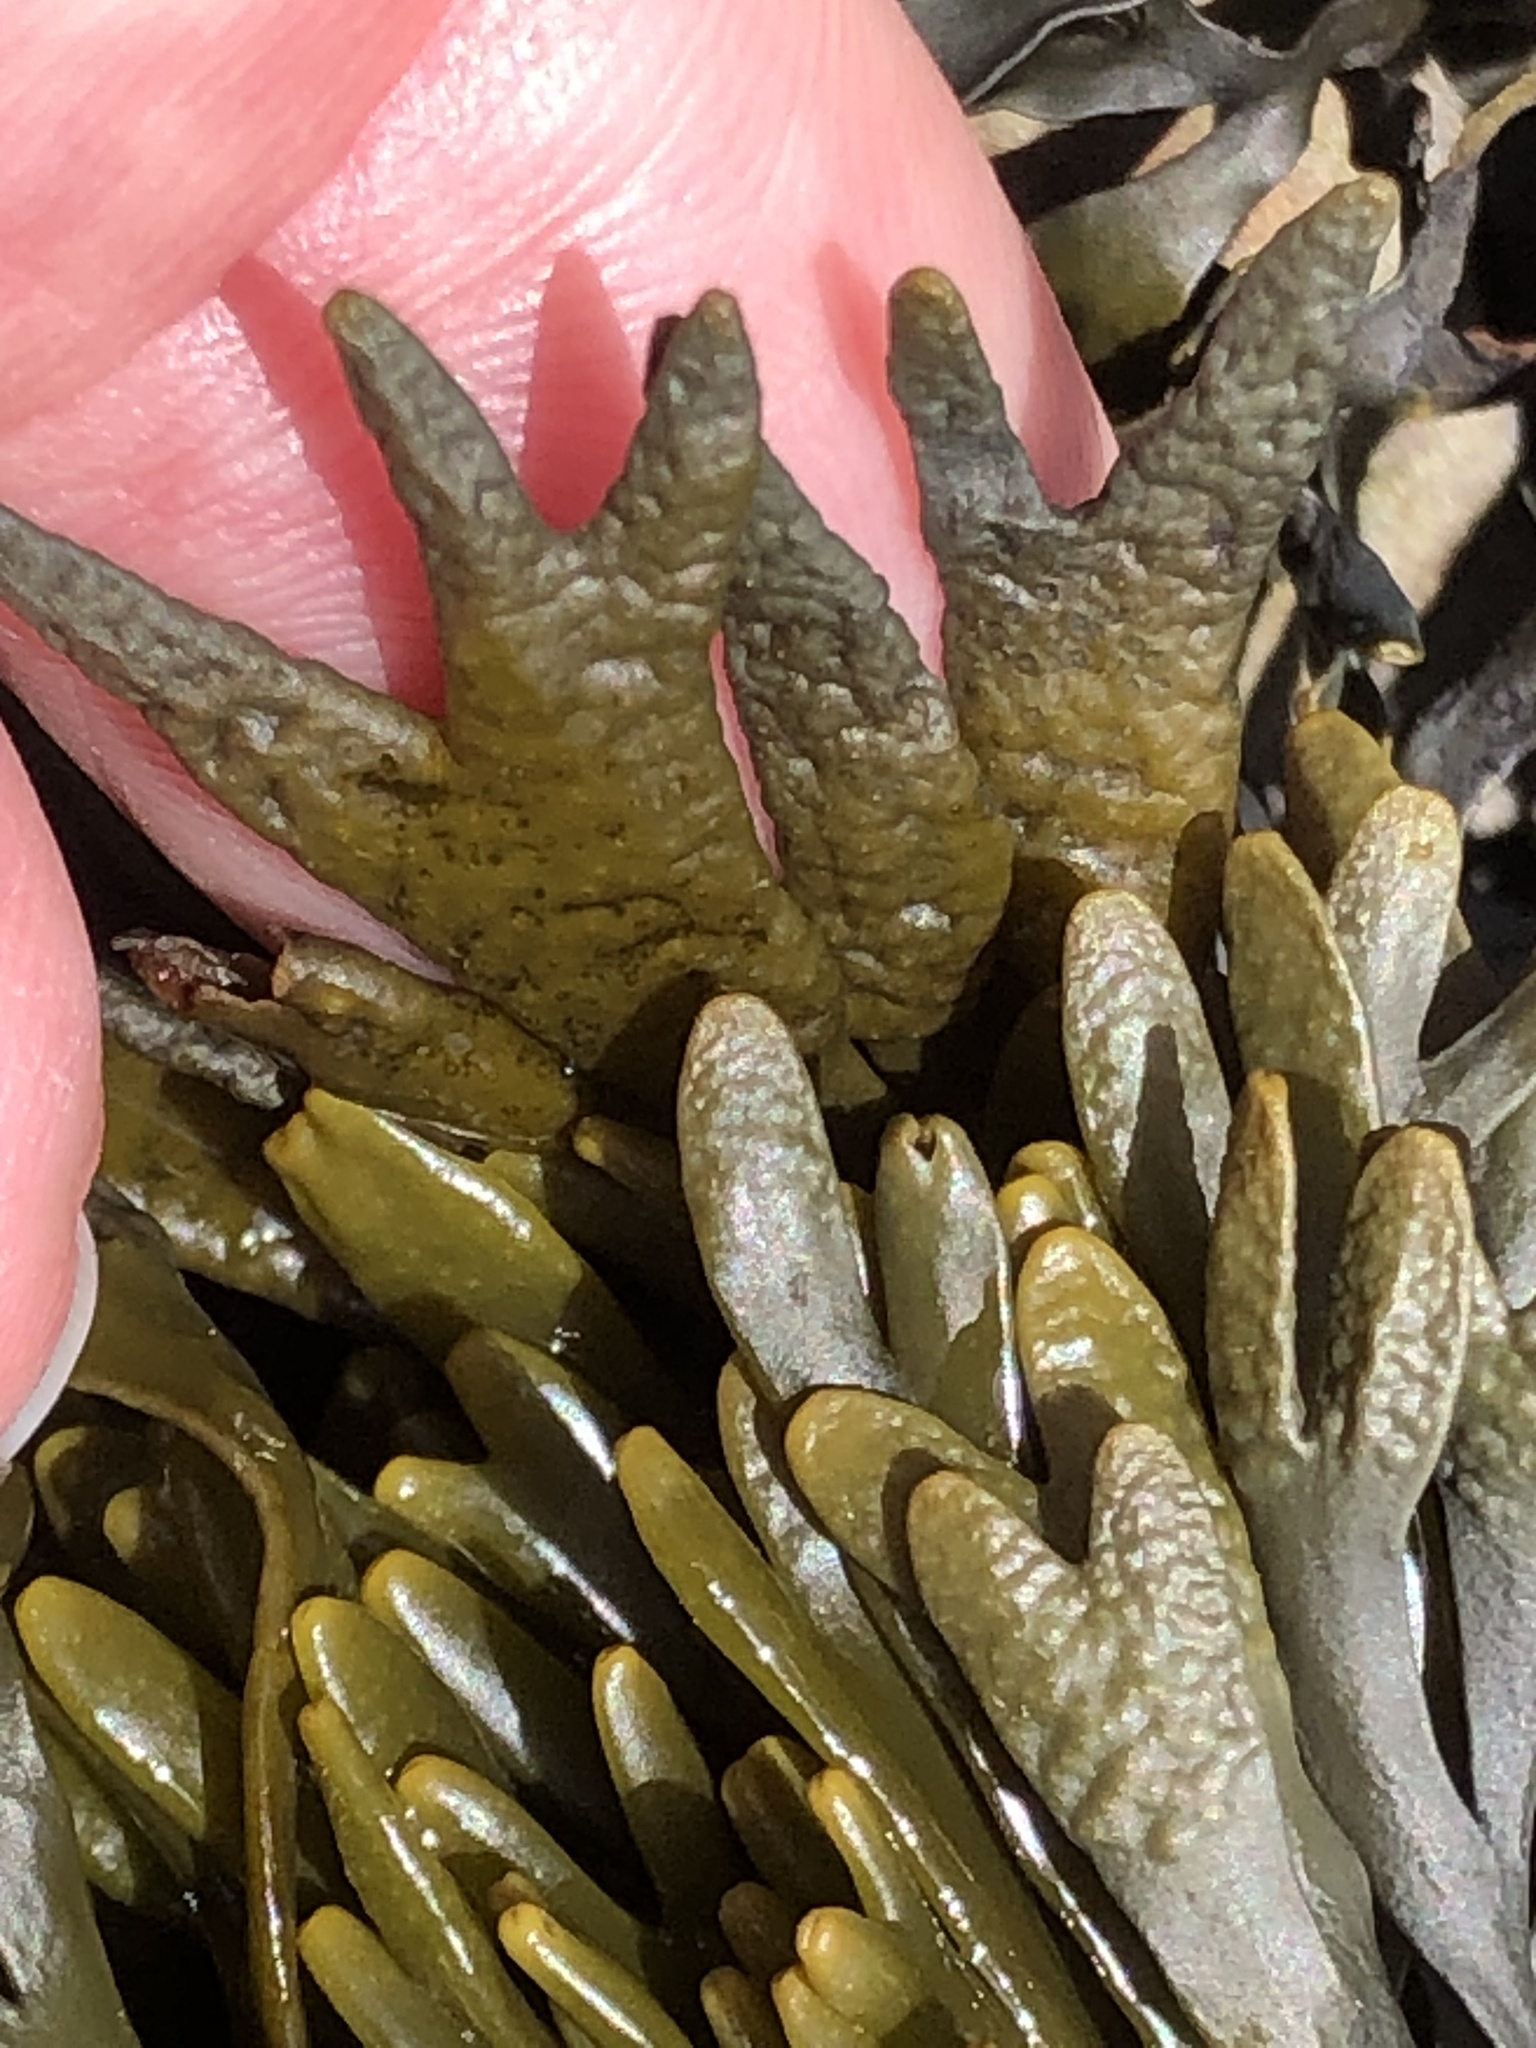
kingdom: Chromista
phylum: Ochrophyta
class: Phaeophyceae
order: Fucales
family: Fucaceae
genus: Pelvetiopsis
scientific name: Pelvetiopsis limitata
